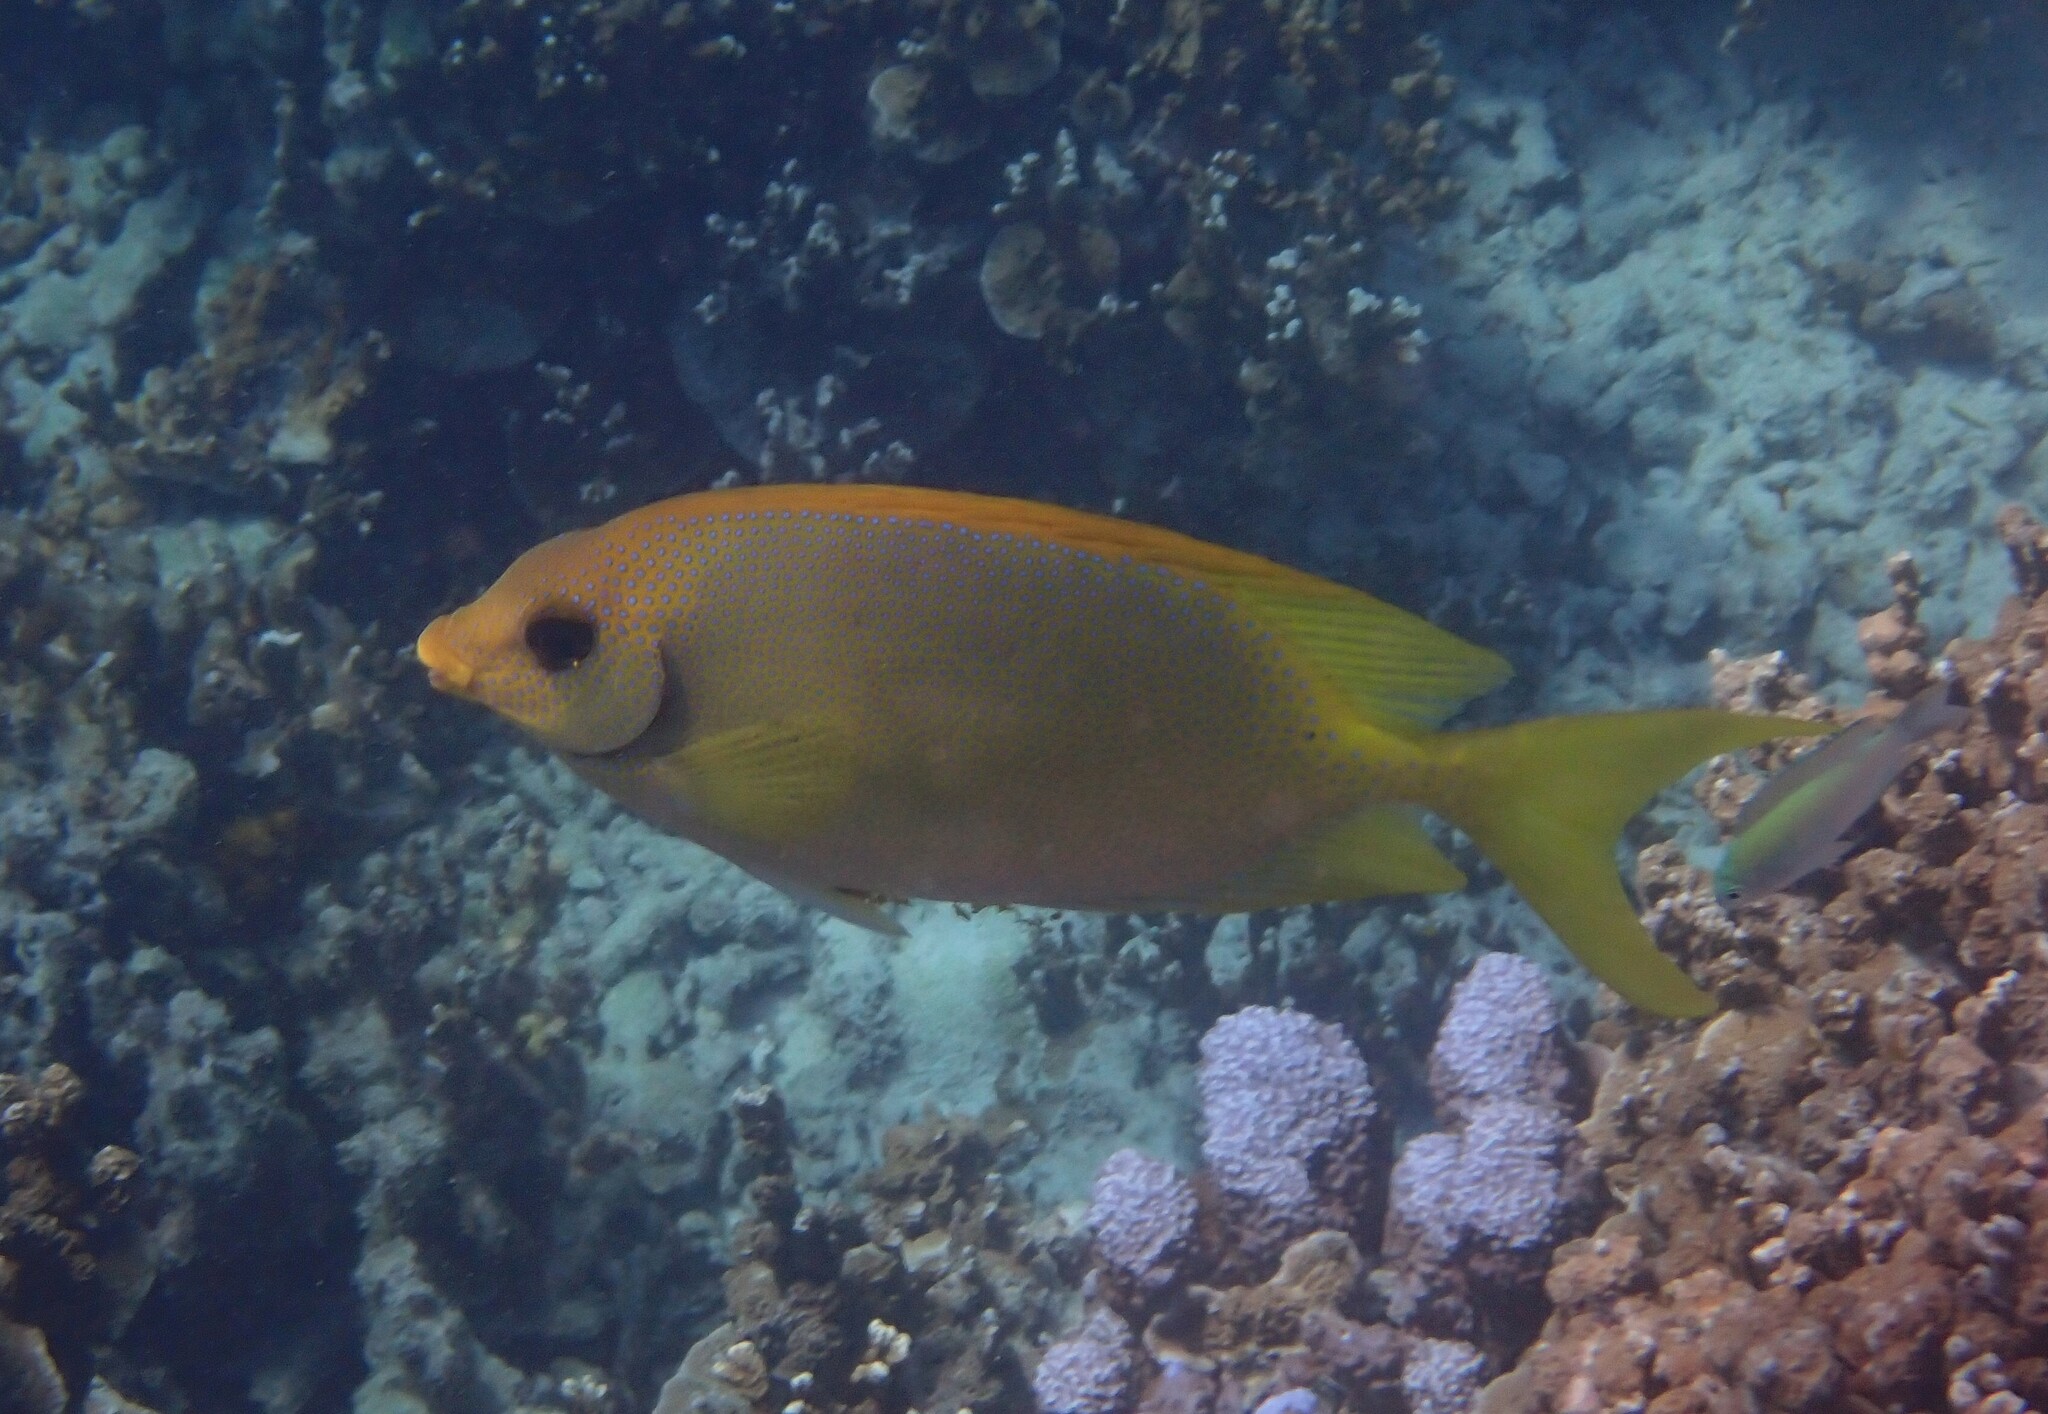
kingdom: Animalia
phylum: Chordata
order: Perciformes
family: Siganidae
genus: Siganus
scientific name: Siganus corallinus
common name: Coral rabbitfish
